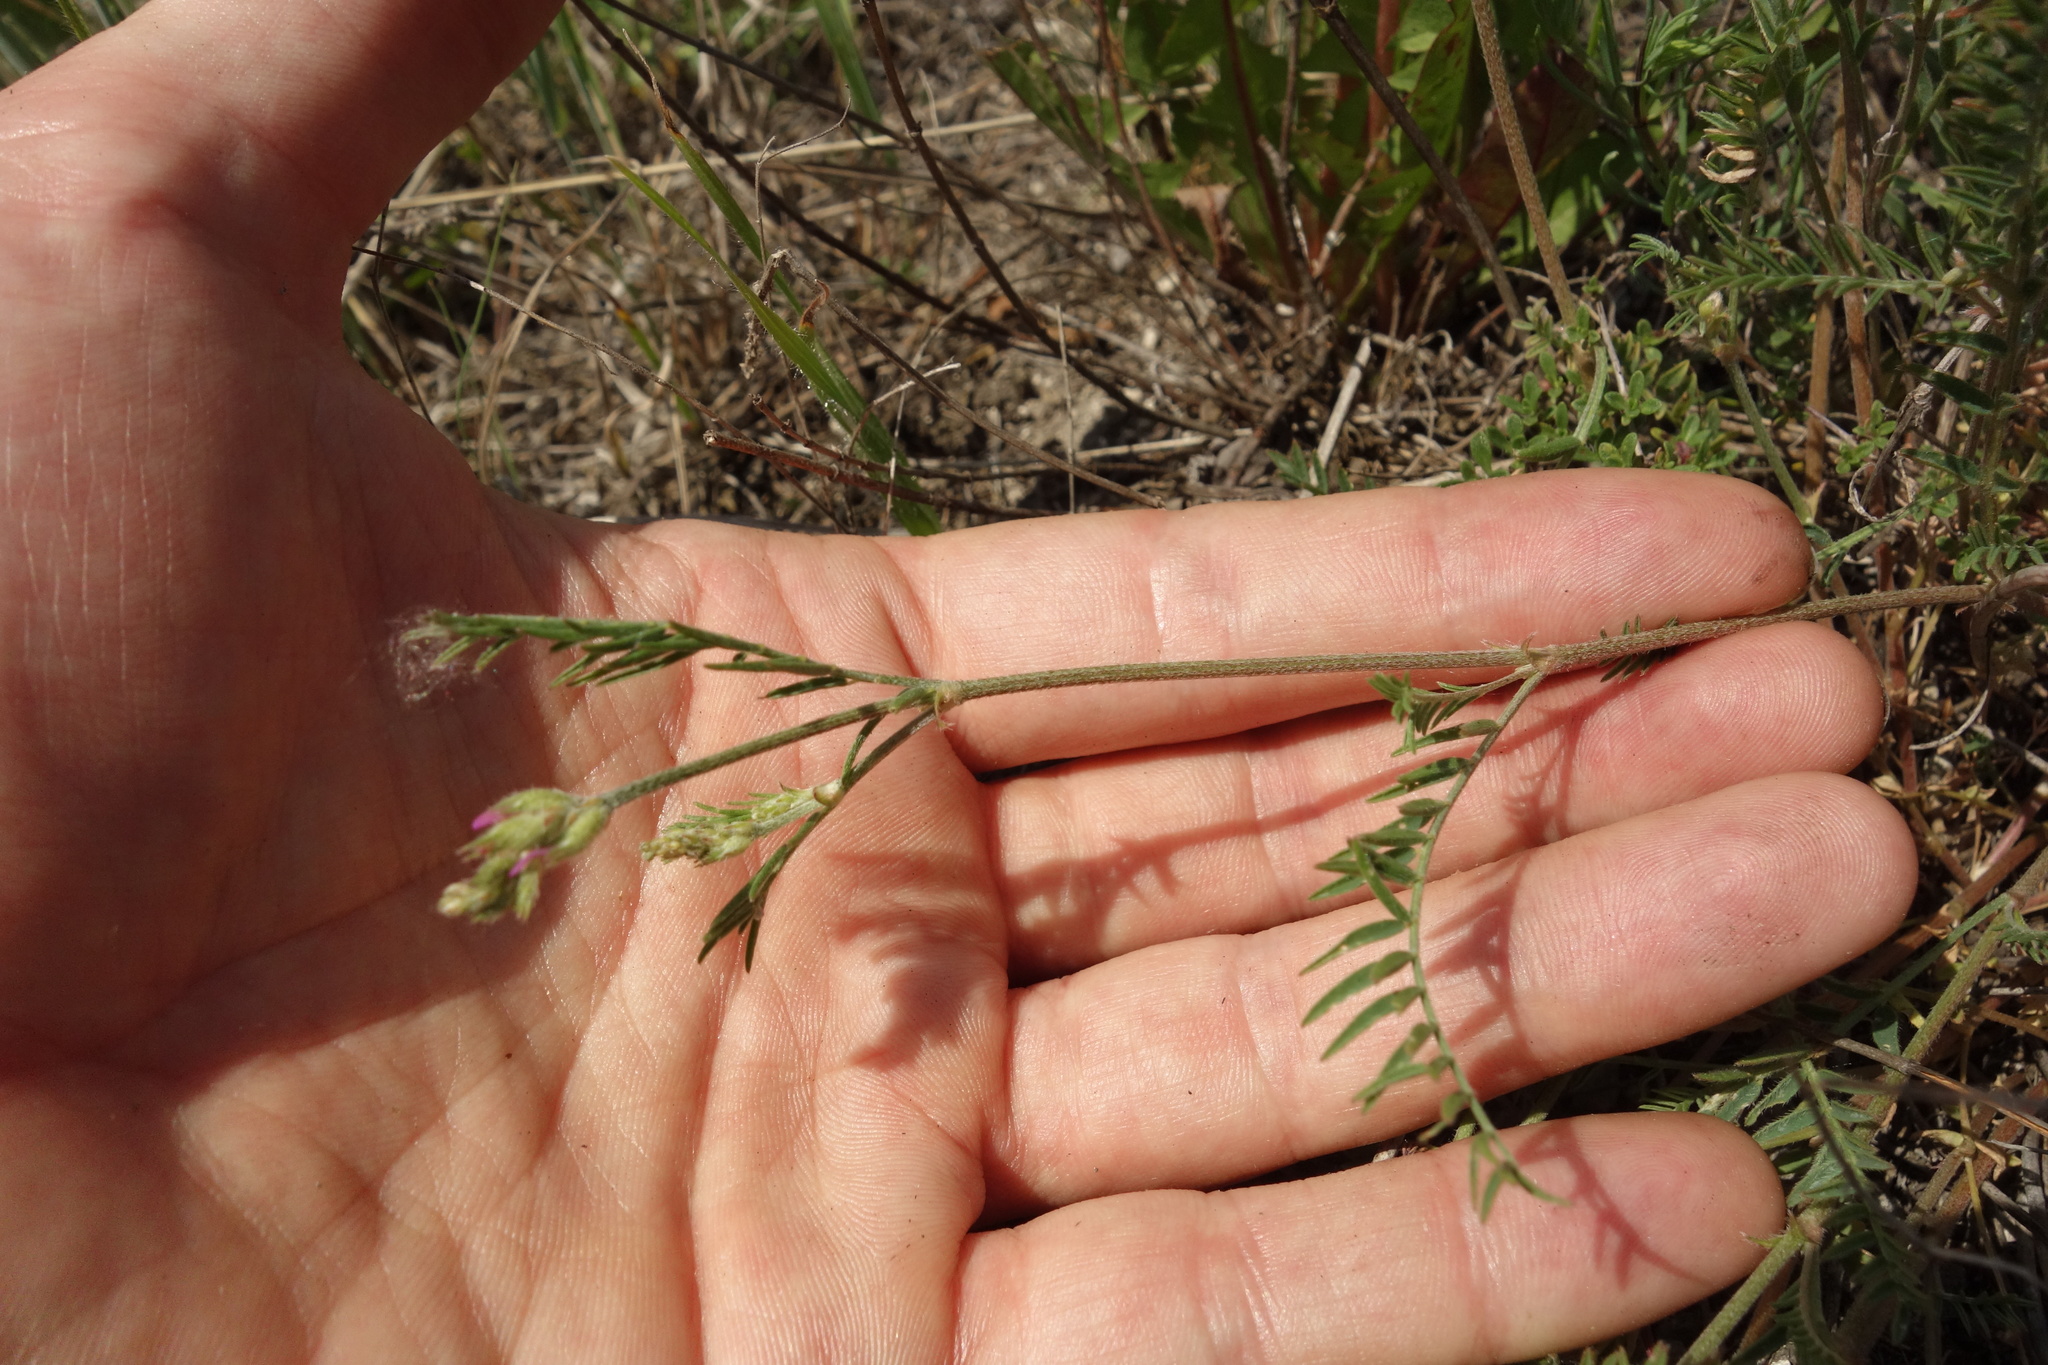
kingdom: Plantae
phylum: Tracheophyta
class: Magnoliopsida
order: Fabales
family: Fabaceae
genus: Astragalus
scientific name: Astragalus onobrychis
